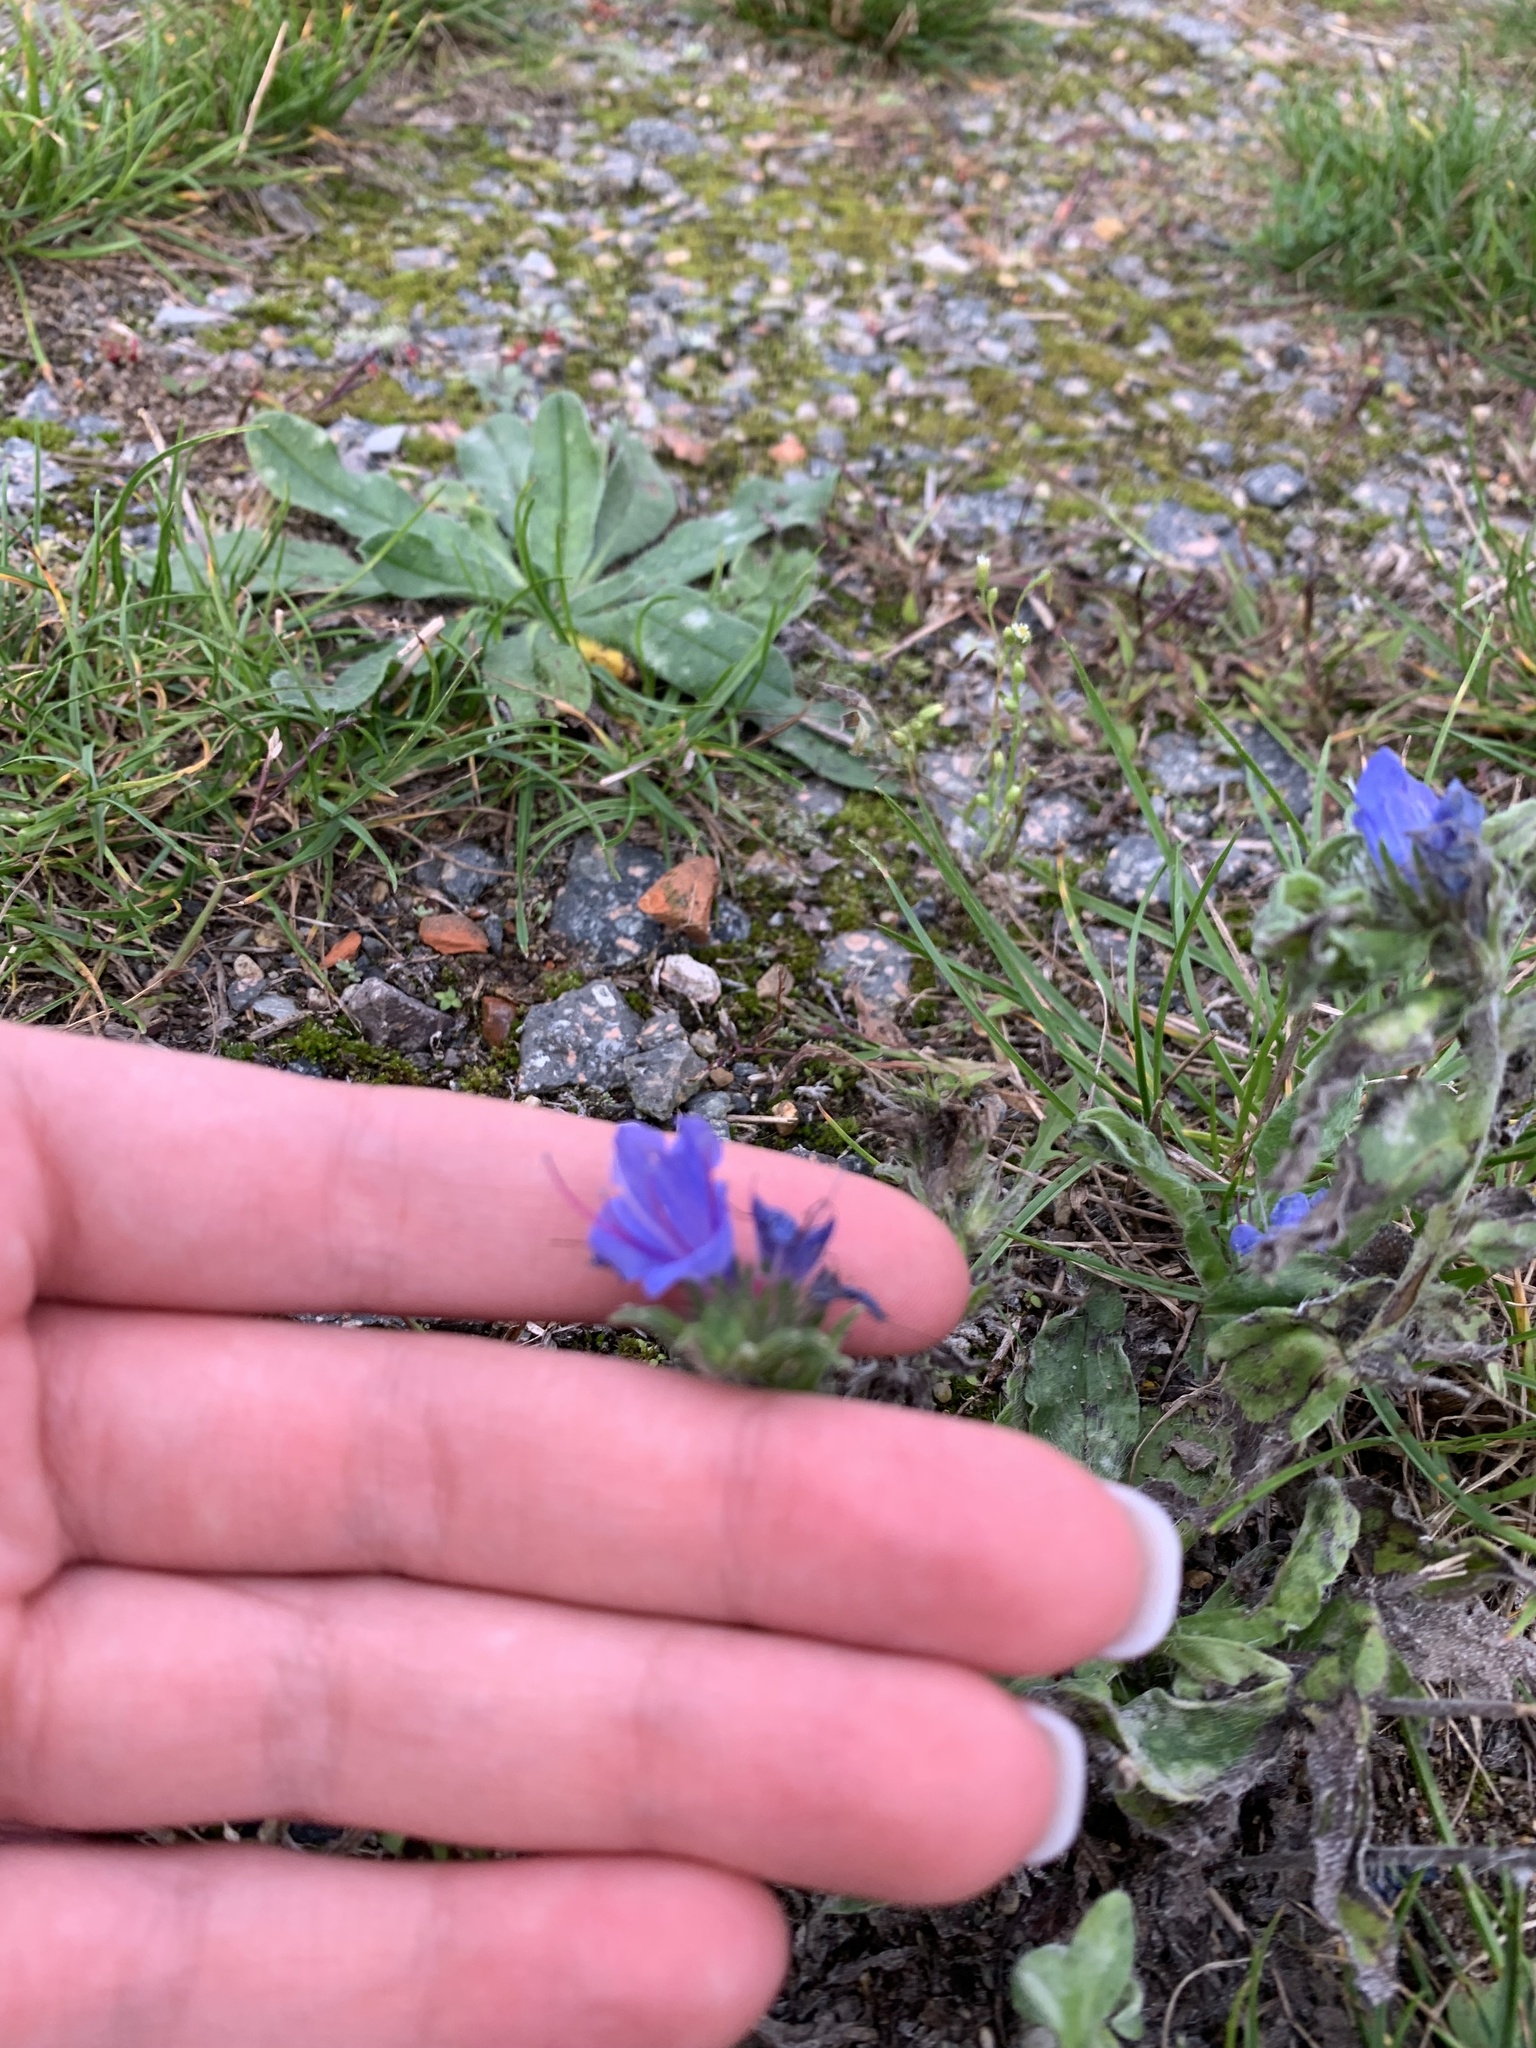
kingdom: Plantae
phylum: Tracheophyta
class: Magnoliopsida
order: Boraginales
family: Boraginaceae
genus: Echium
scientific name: Echium vulgare
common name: Common viper's bugloss
